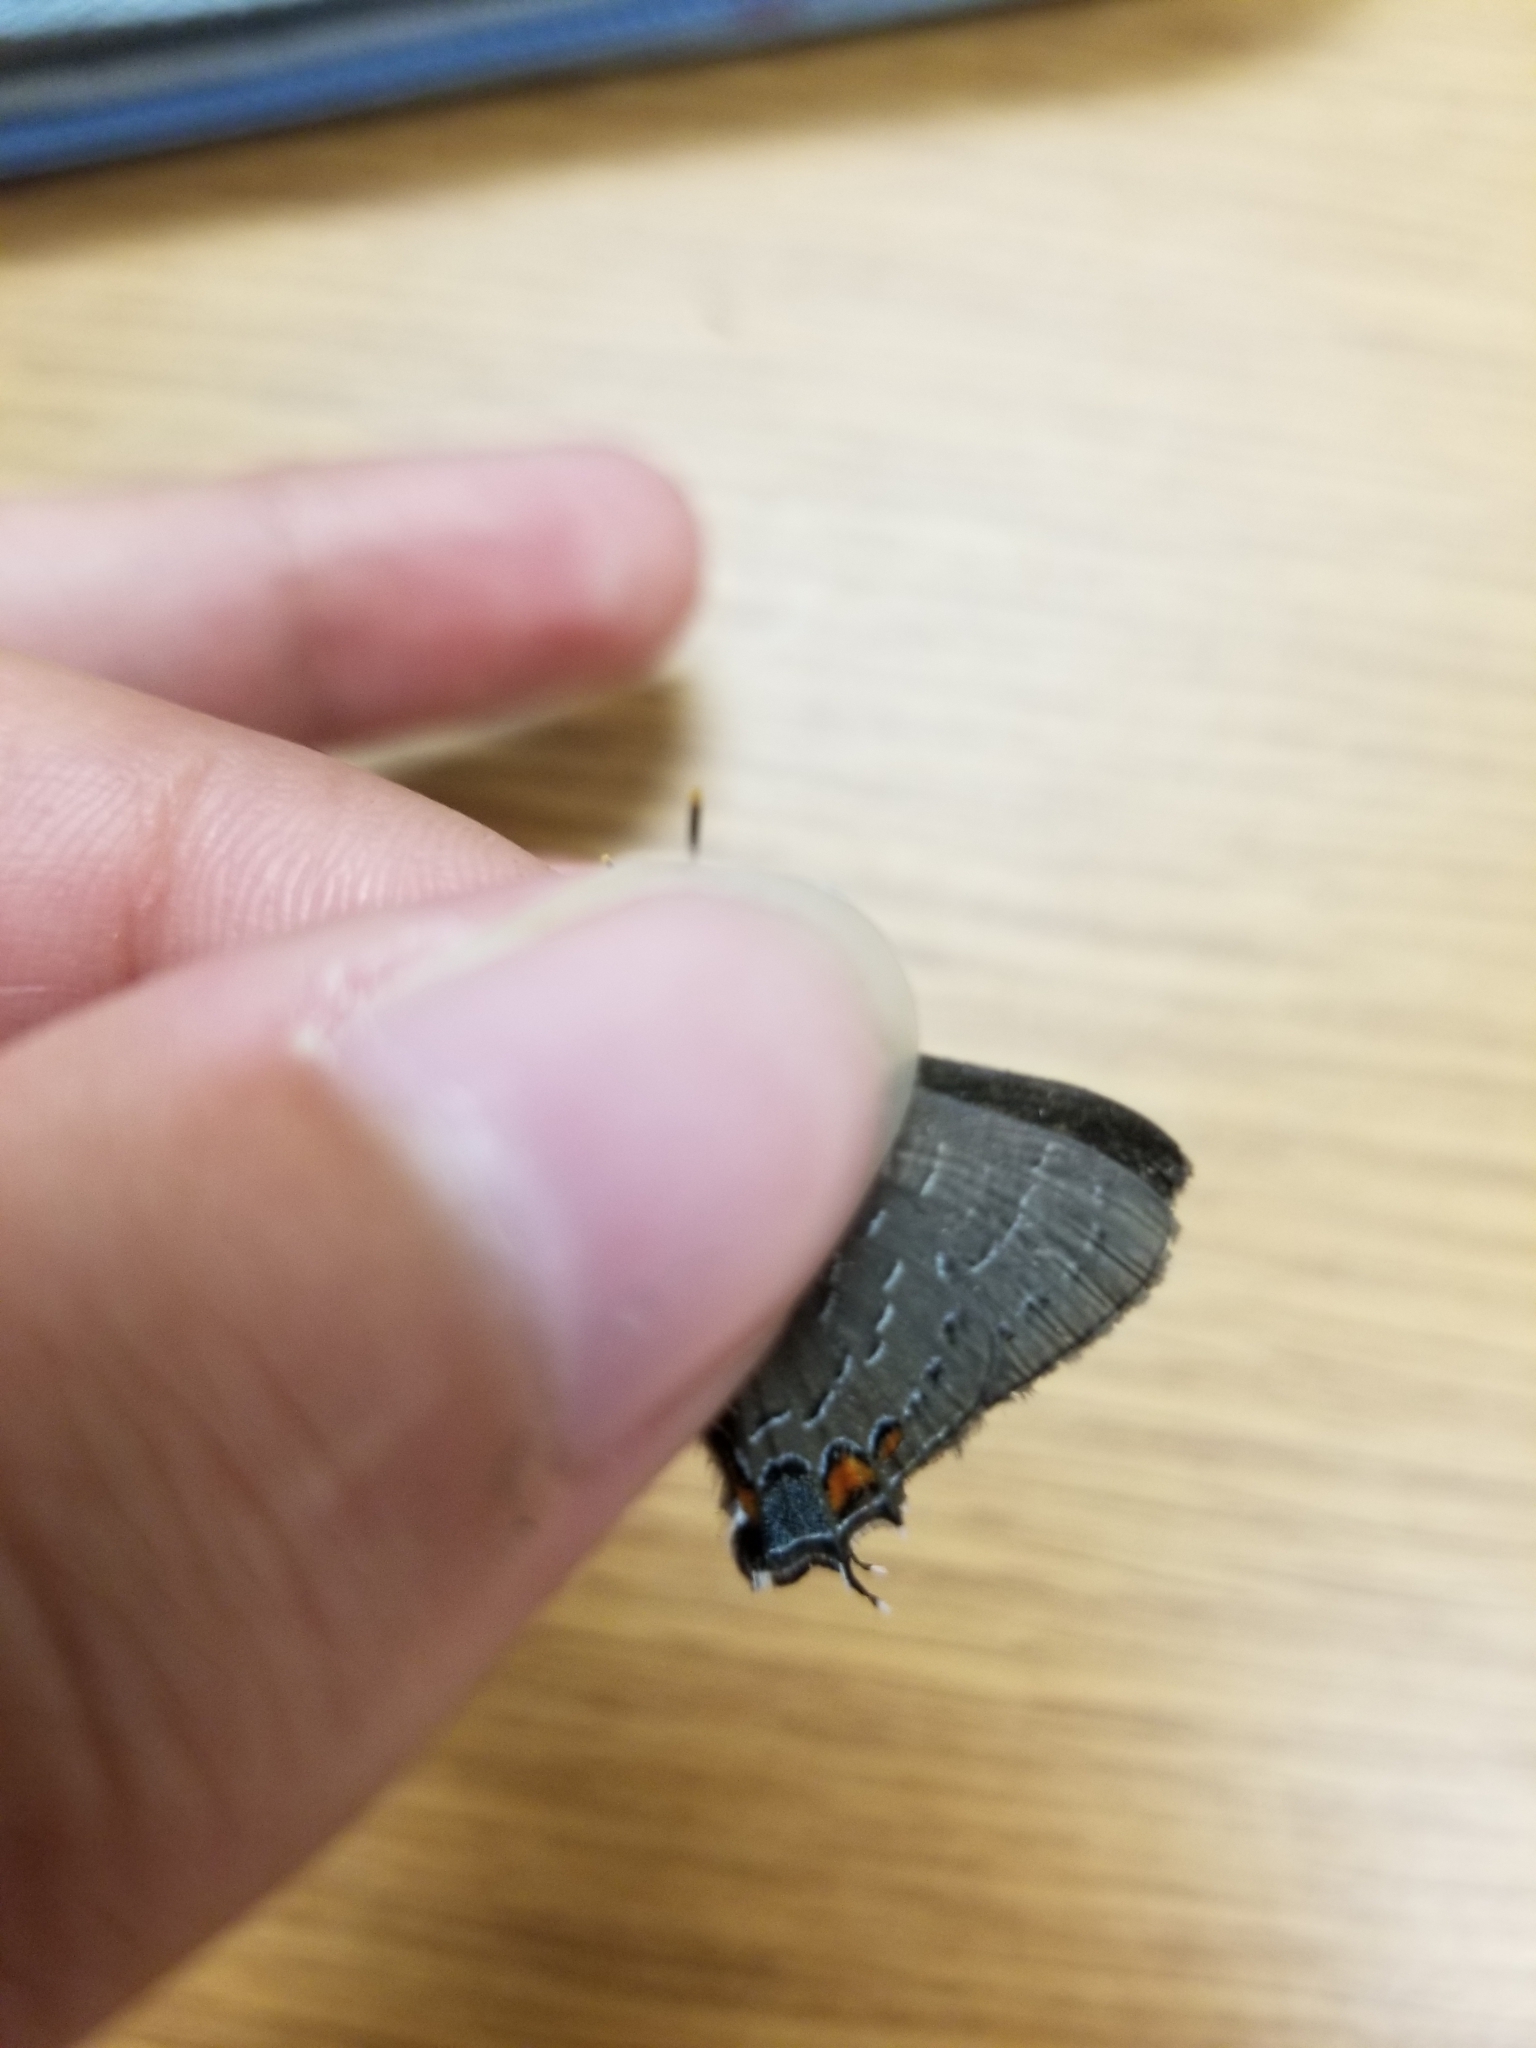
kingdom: Animalia
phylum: Arthropoda
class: Insecta
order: Lepidoptera
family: Lycaenidae
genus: Satyrium
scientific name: Satyrium calanus
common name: Banded hairstreak
